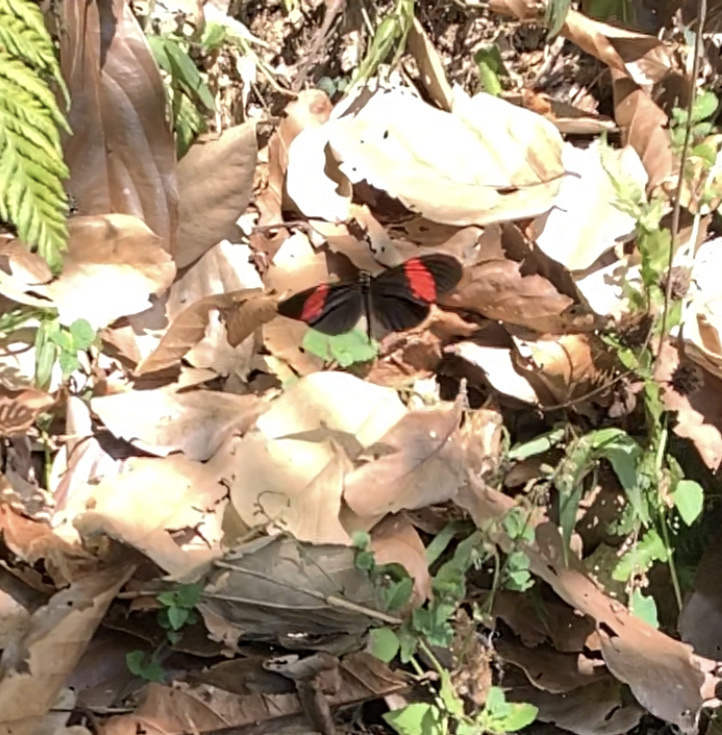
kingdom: Animalia
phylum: Arthropoda
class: Insecta
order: Lepidoptera
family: Nymphalidae
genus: Heliconius
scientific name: Heliconius erato
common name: Common patch longwing
